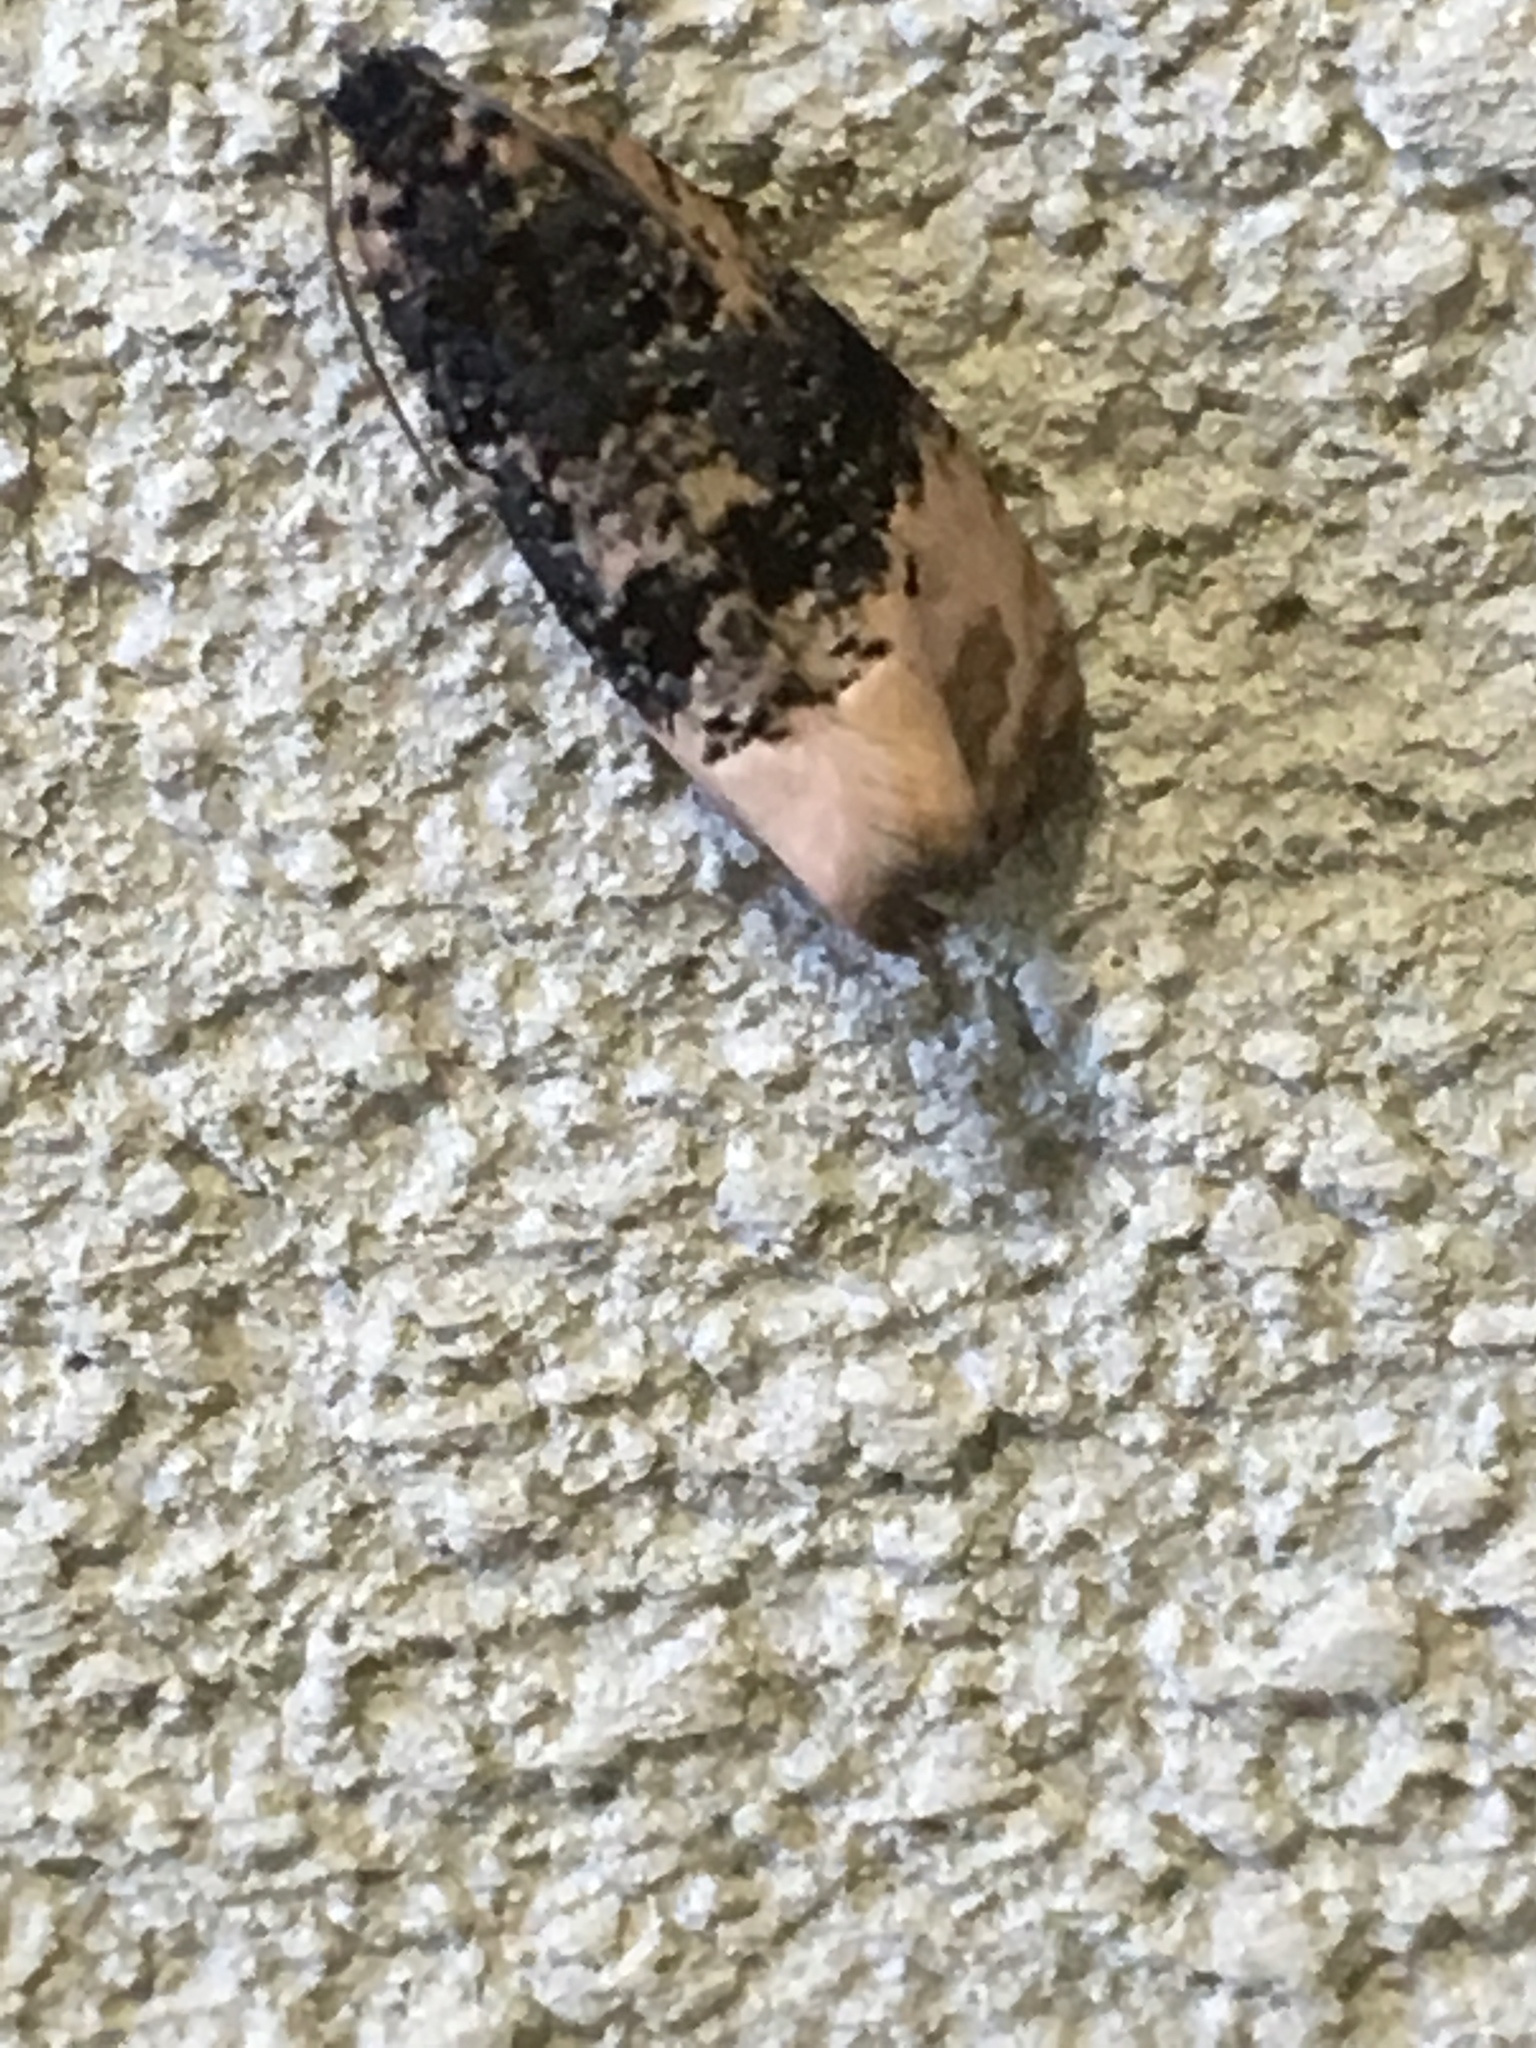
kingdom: Animalia
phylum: Arthropoda
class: Insecta
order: Lepidoptera
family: Tortricidae
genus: Hedya
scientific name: Hedya separatana
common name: Pink-washed leafroller moth
